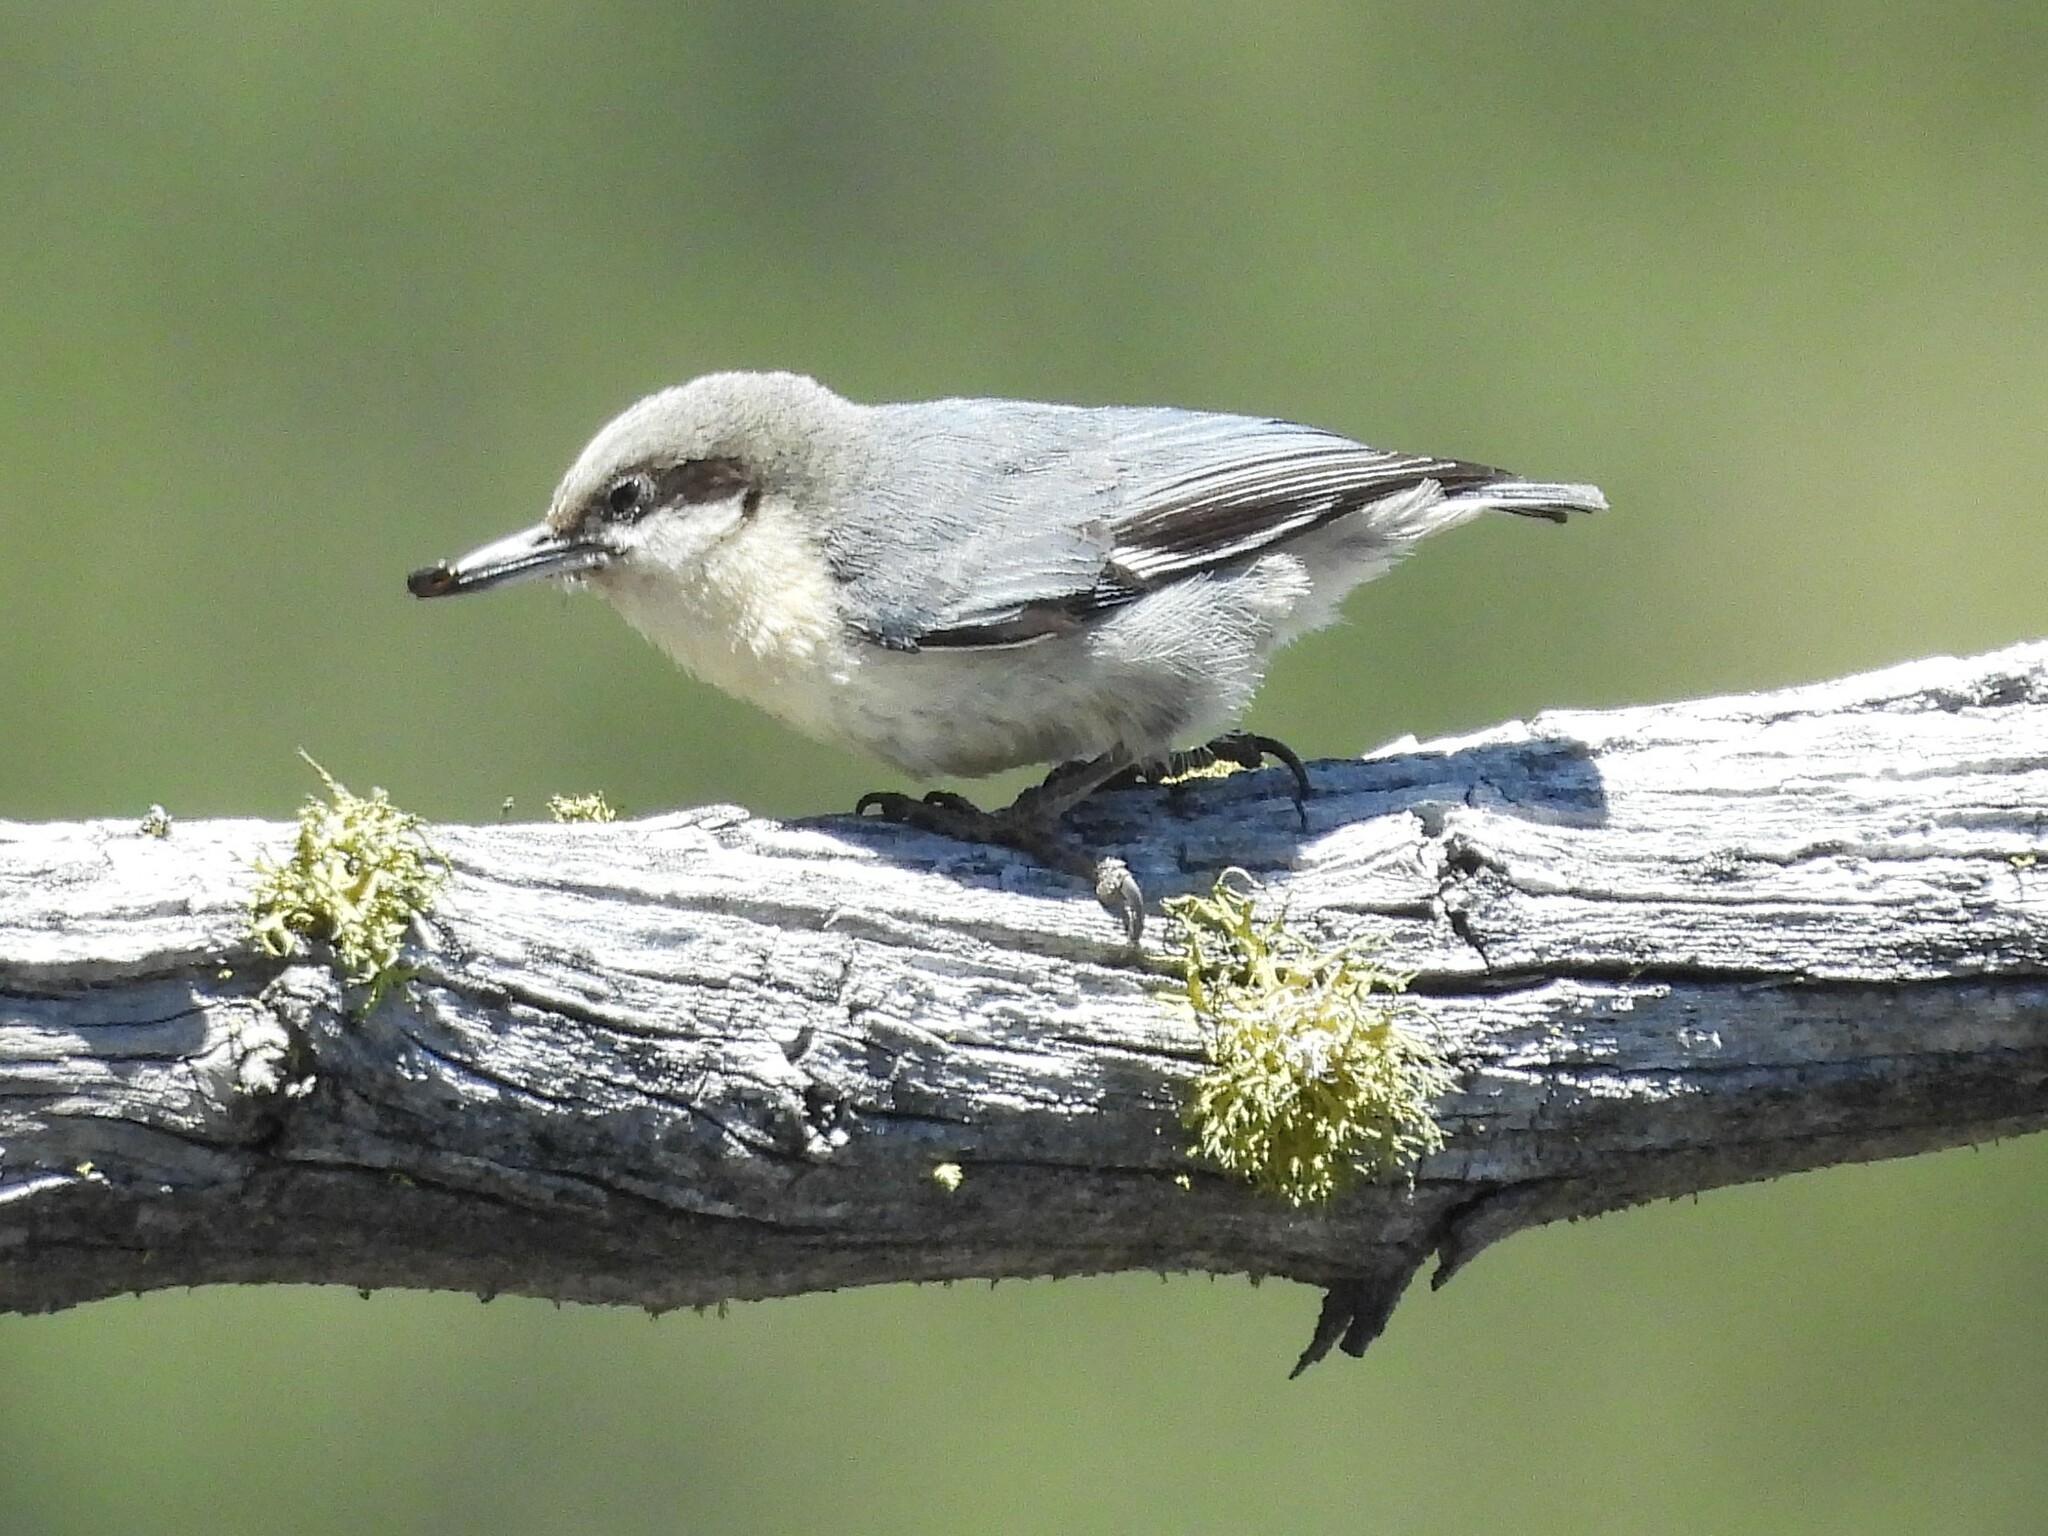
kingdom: Animalia
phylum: Chordata
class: Aves
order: Passeriformes
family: Sittidae
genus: Sitta
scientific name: Sitta pygmaea
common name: Pygmy nuthatch
